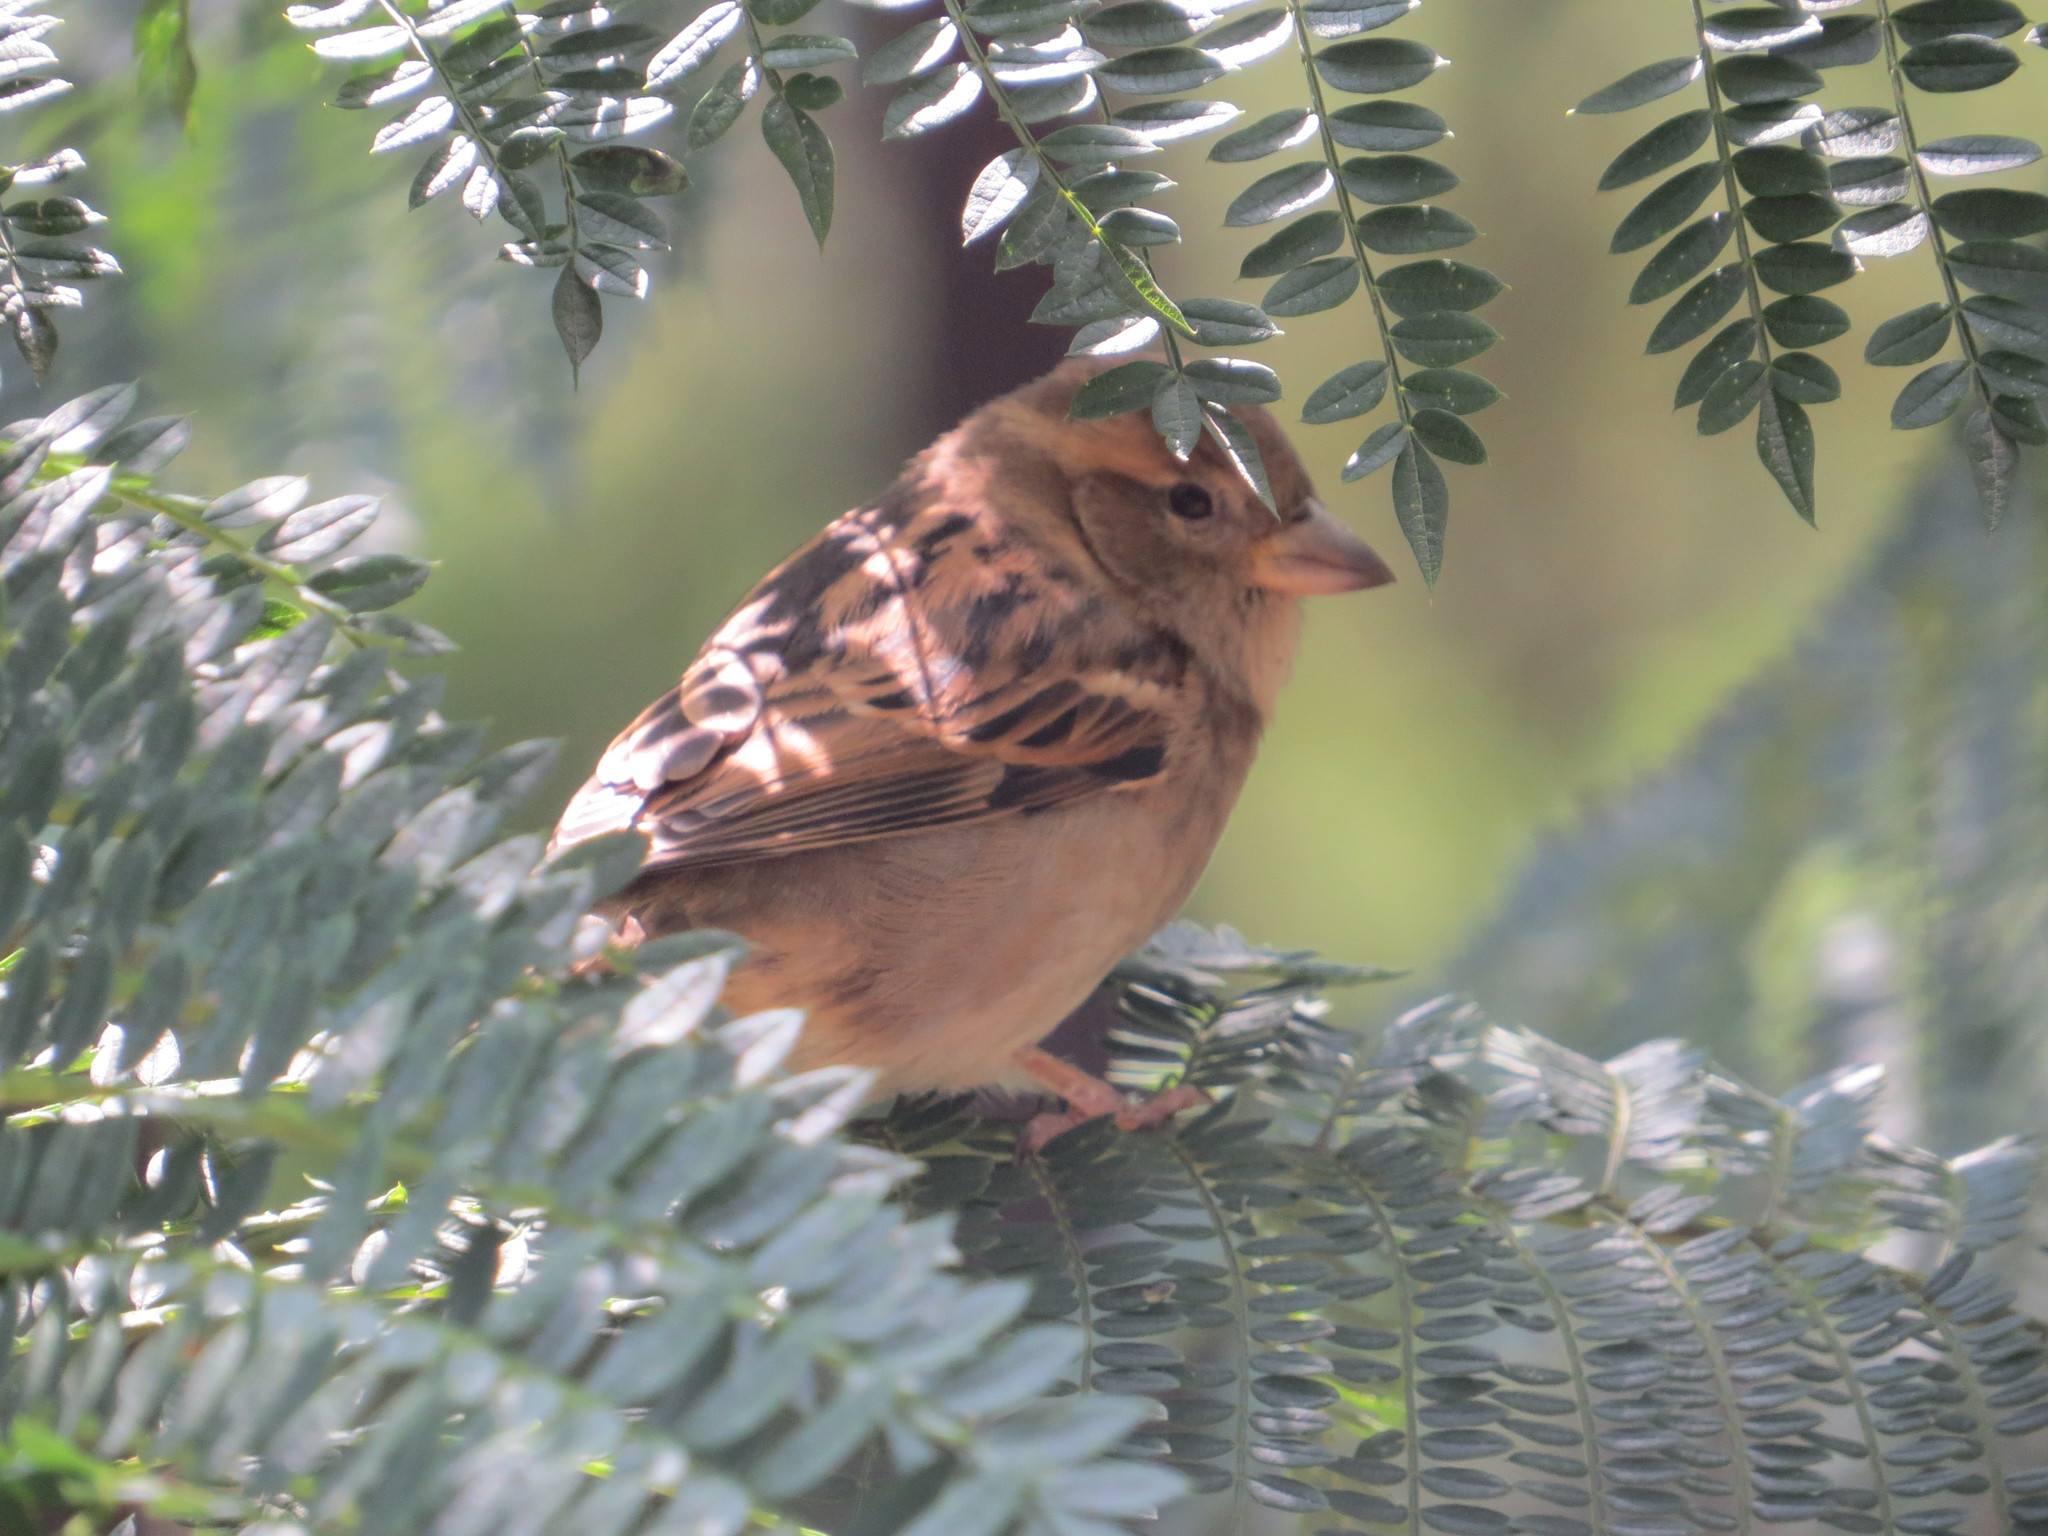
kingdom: Animalia
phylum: Chordata
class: Aves
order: Passeriformes
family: Passeridae
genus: Passer
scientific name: Passer domesticus
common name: House sparrow
